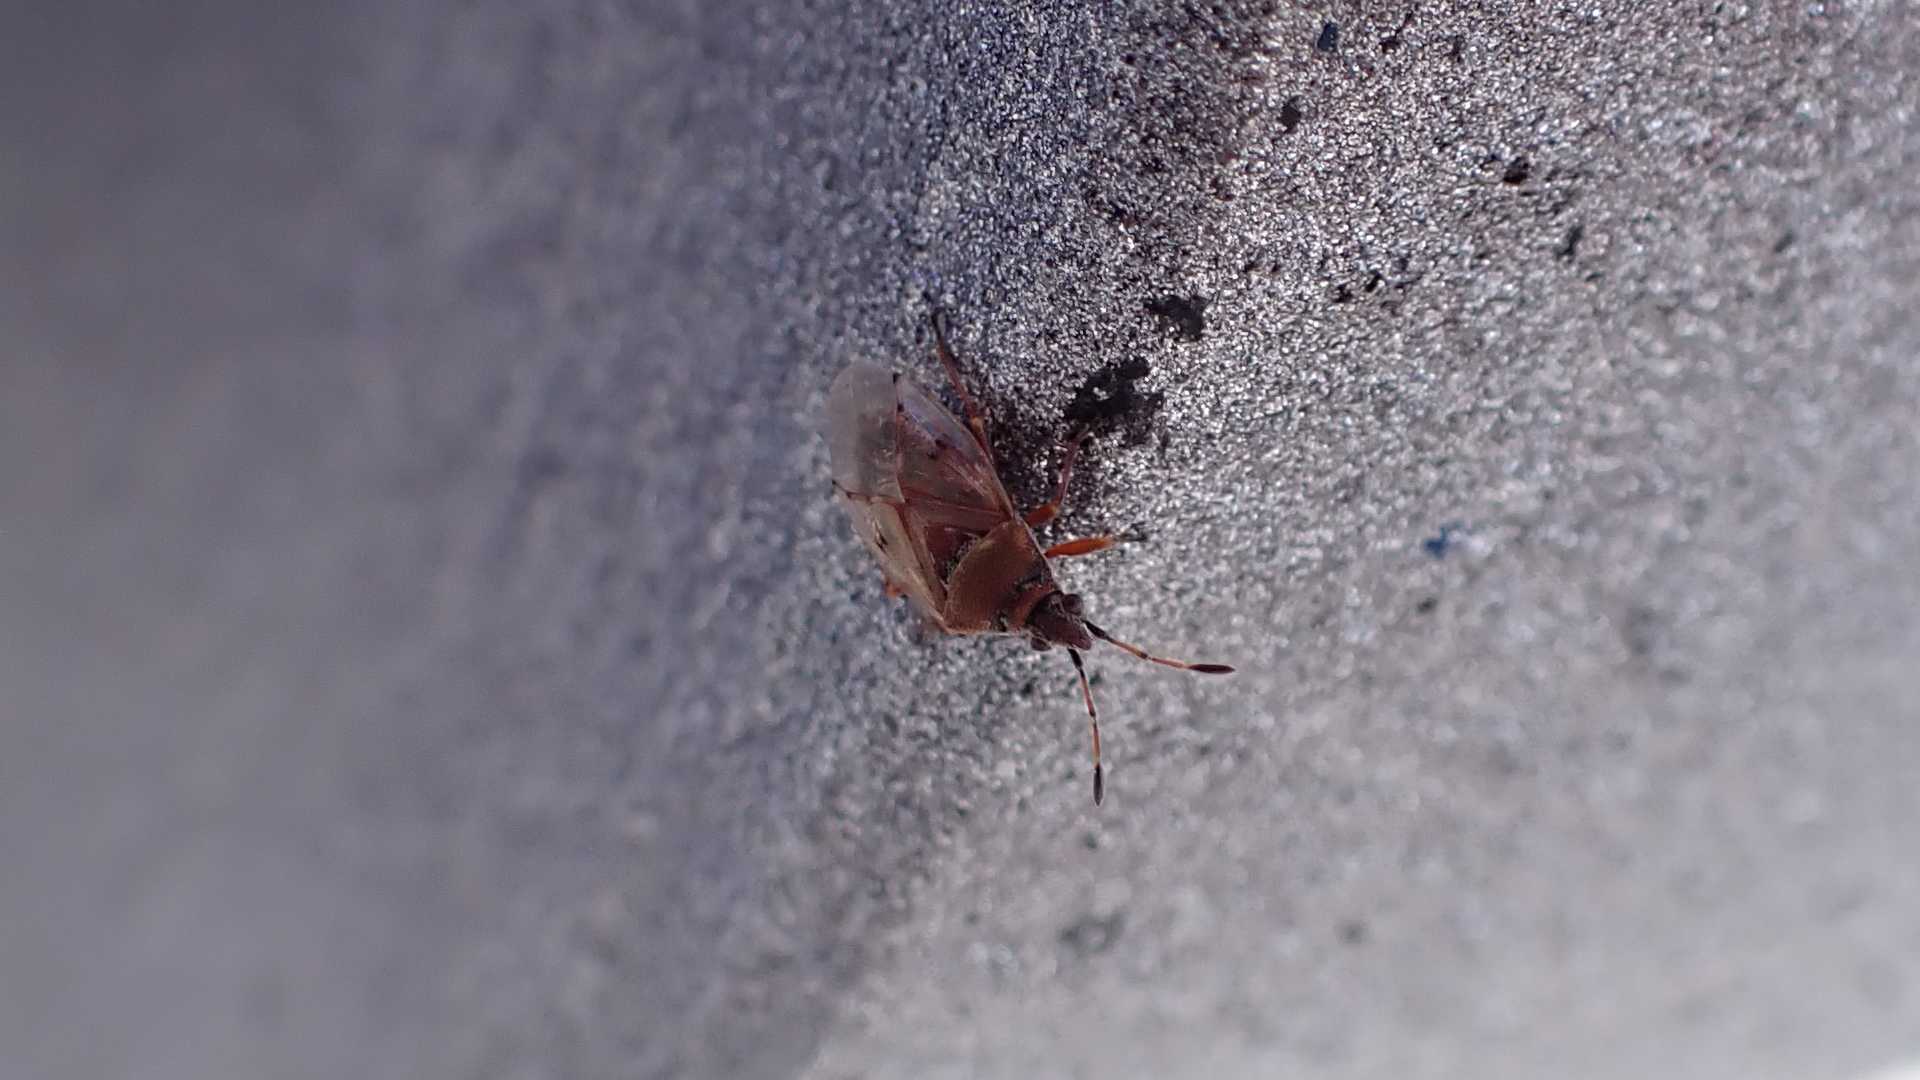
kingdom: Animalia
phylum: Arthropoda
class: Insecta
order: Hemiptera
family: Lygaeidae
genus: Kleidocerys
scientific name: Kleidocerys resedae
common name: Birch catkin bug
